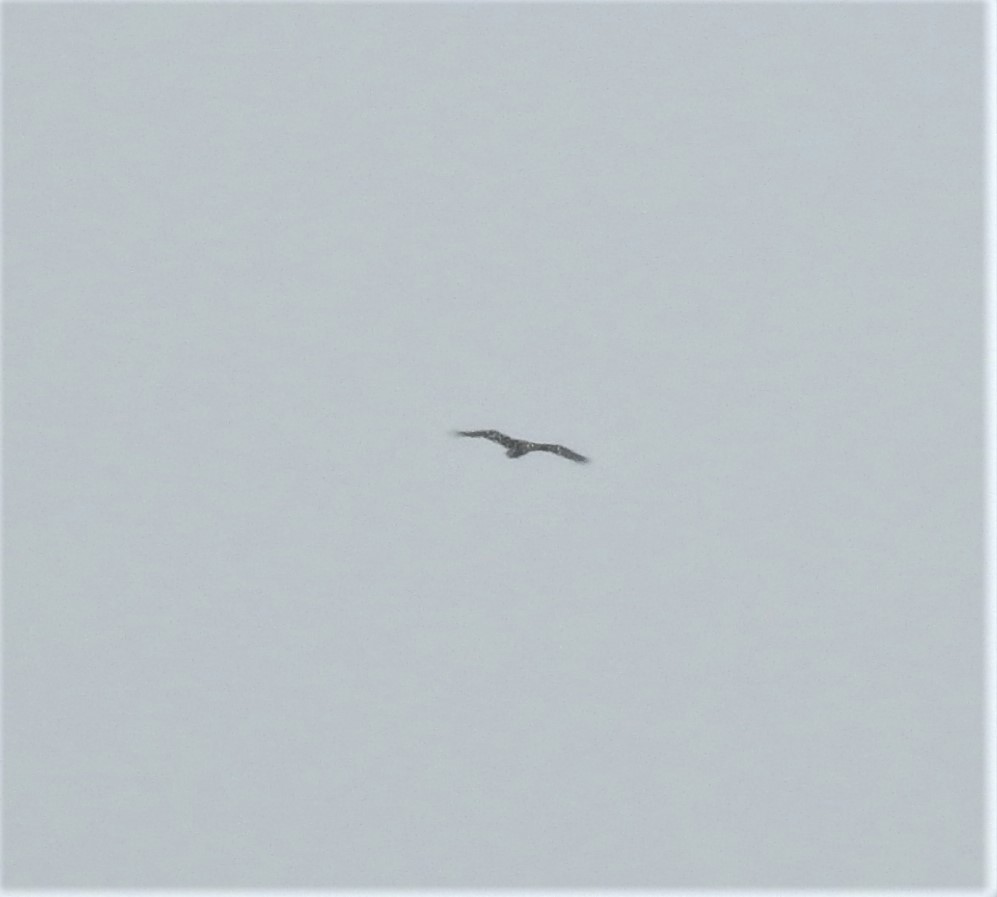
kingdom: Animalia
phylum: Chordata
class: Aves
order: Accipitriformes
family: Accipitridae
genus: Haliaeetus
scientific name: Haliaeetus albicilla
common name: White-tailed eagle
